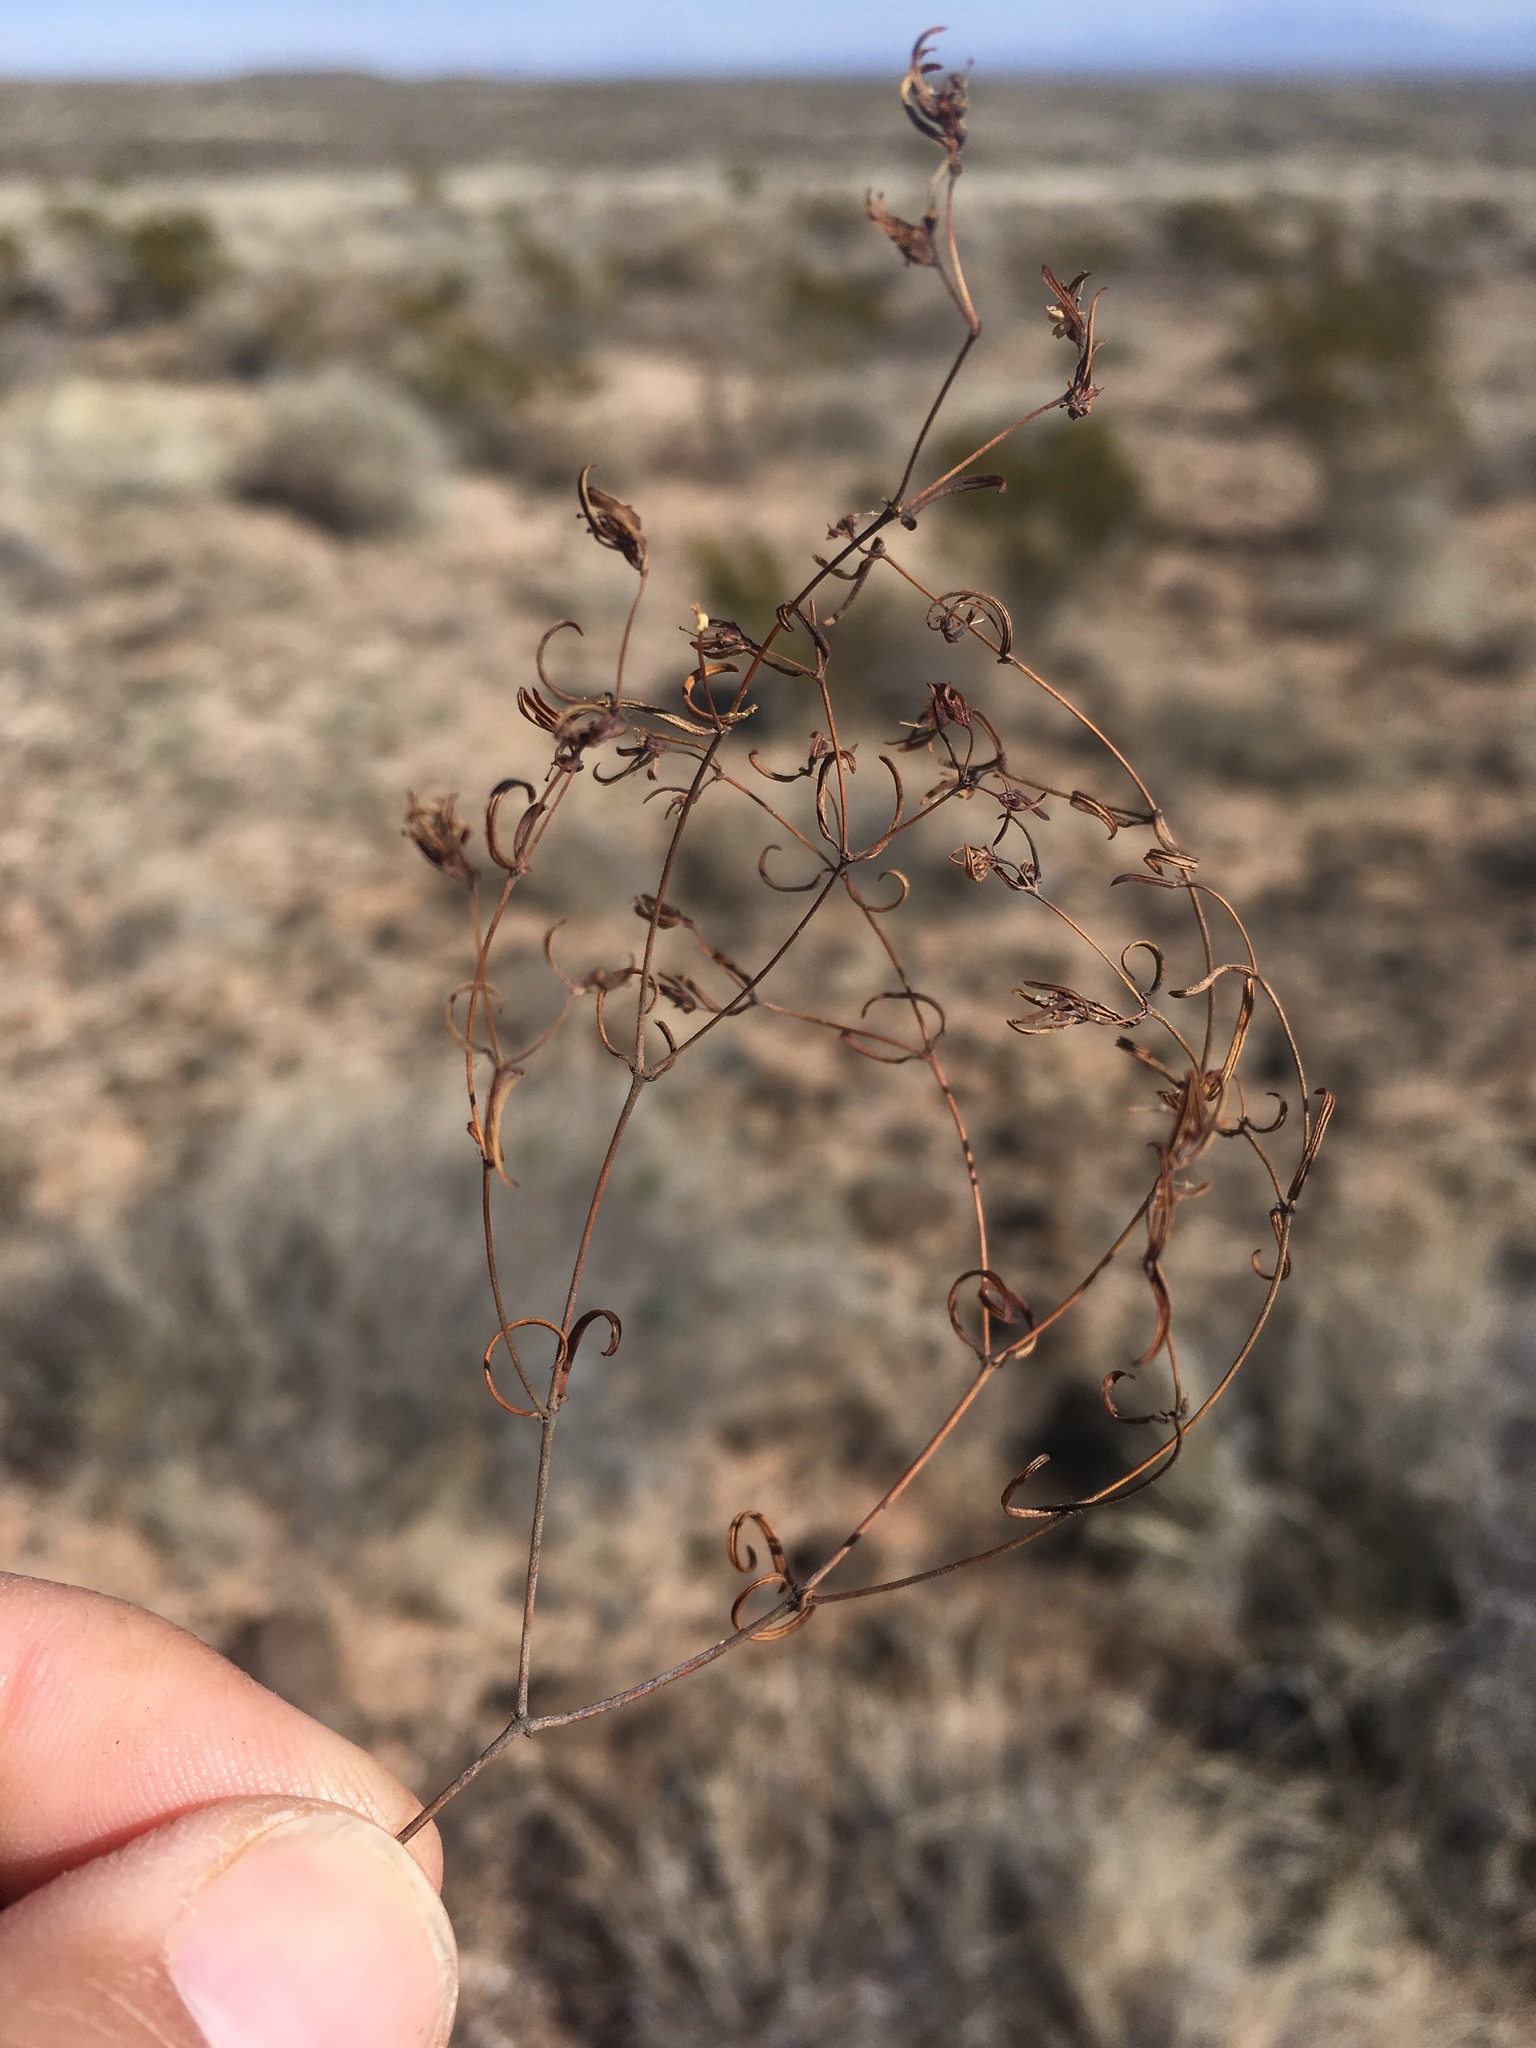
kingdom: Plantae
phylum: Tracheophyta
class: Magnoliopsida
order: Malpighiales
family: Euphorbiaceae
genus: Euphorbia
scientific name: Euphorbia revoluta
